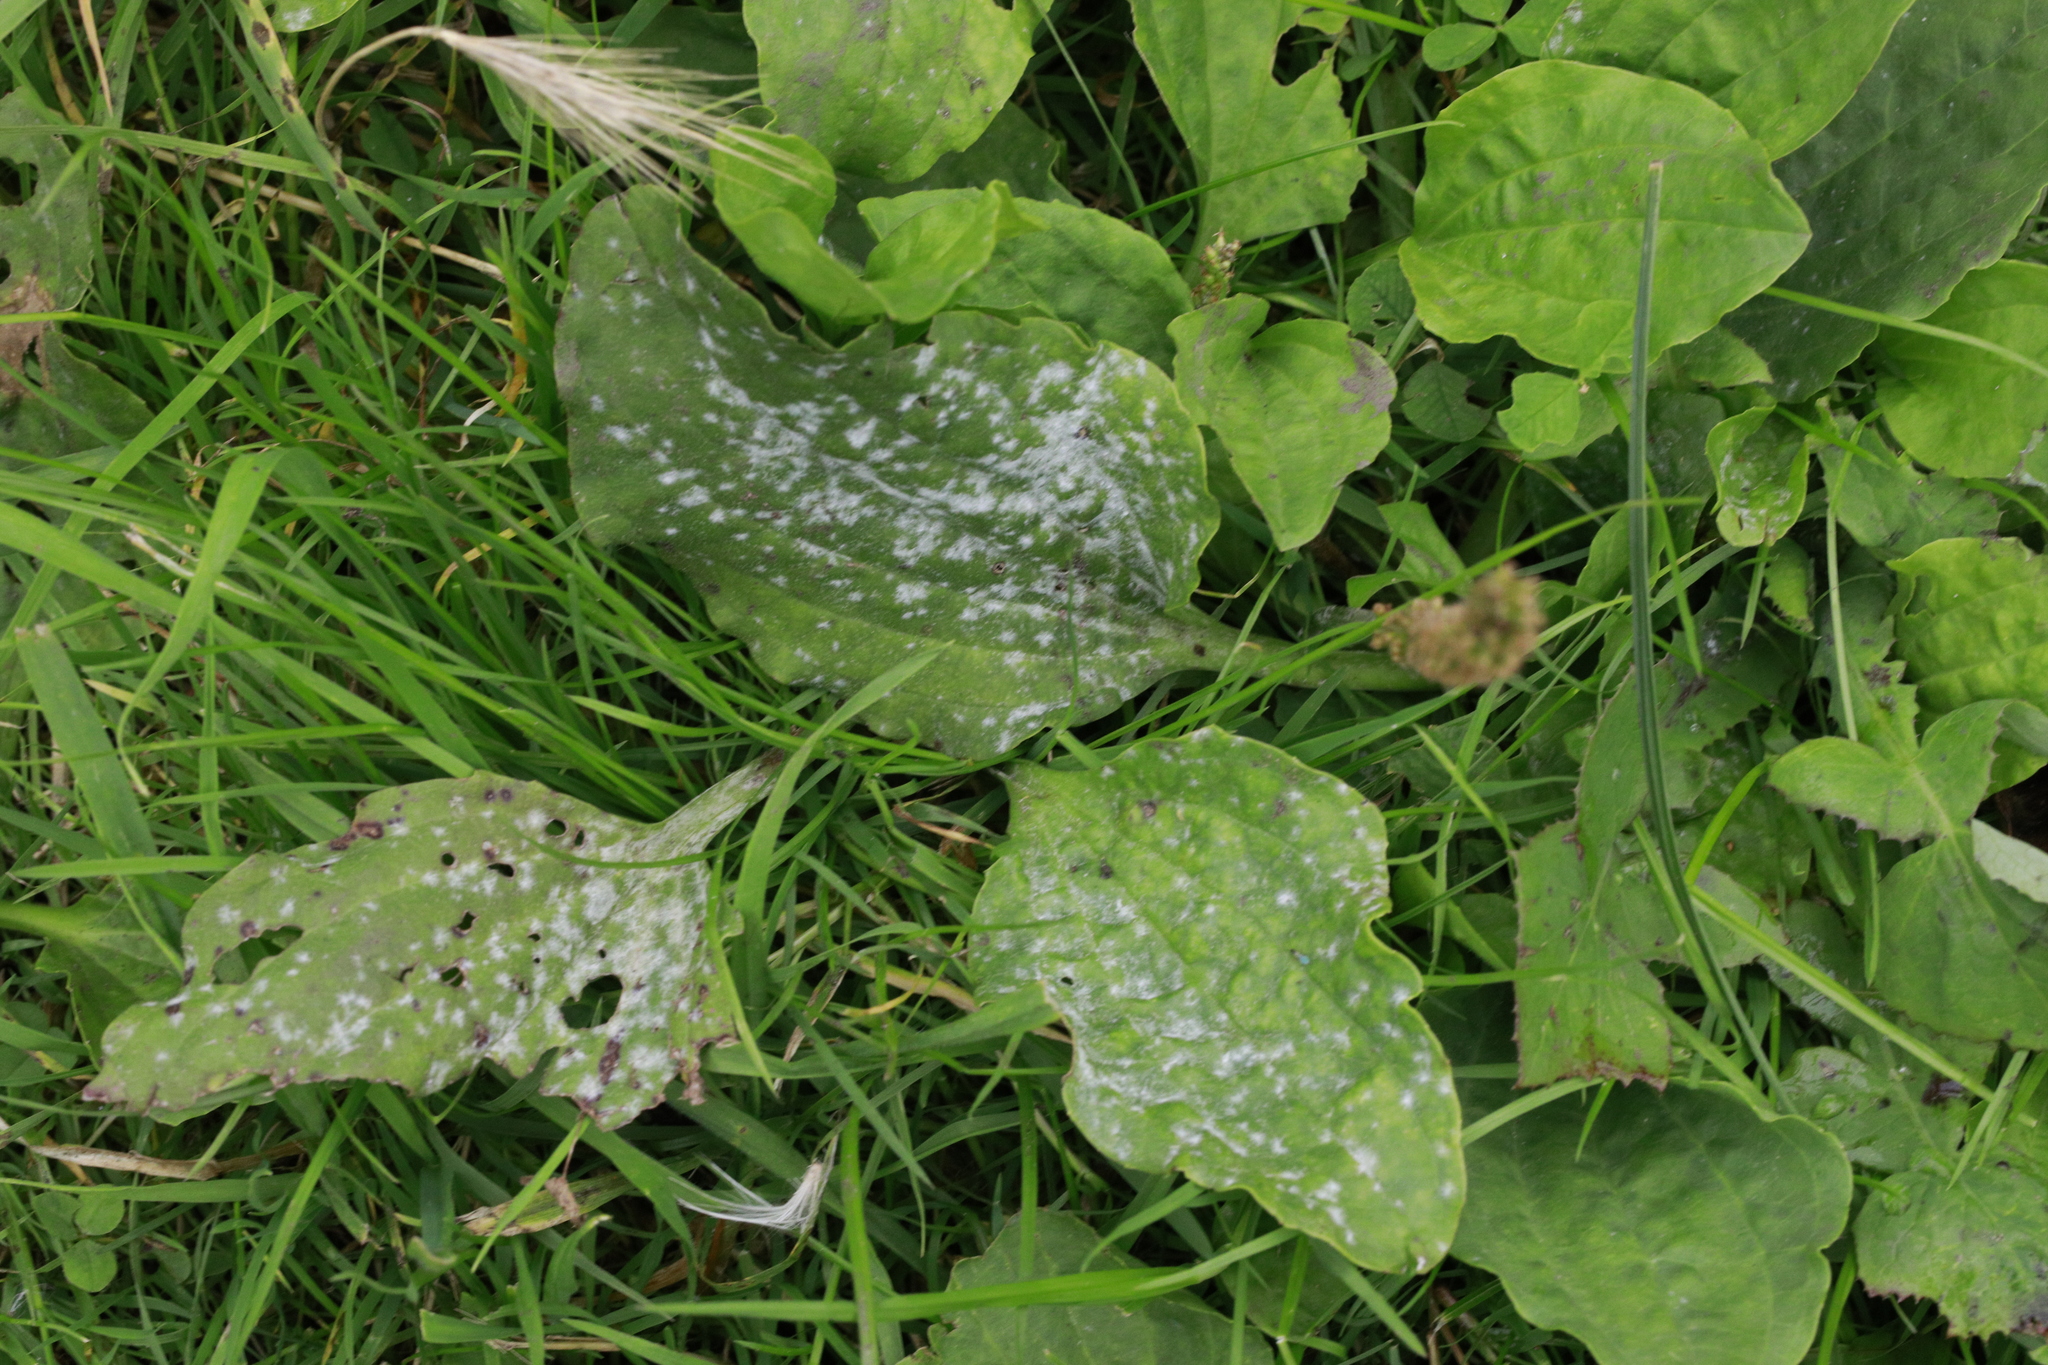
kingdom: Fungi
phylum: Ascomycota
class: Leotiomycetes
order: Helotiales
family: Erysiphaceae
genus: Golovinomyces
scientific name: Golovinomyces sordidus
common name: Plantain mildew
